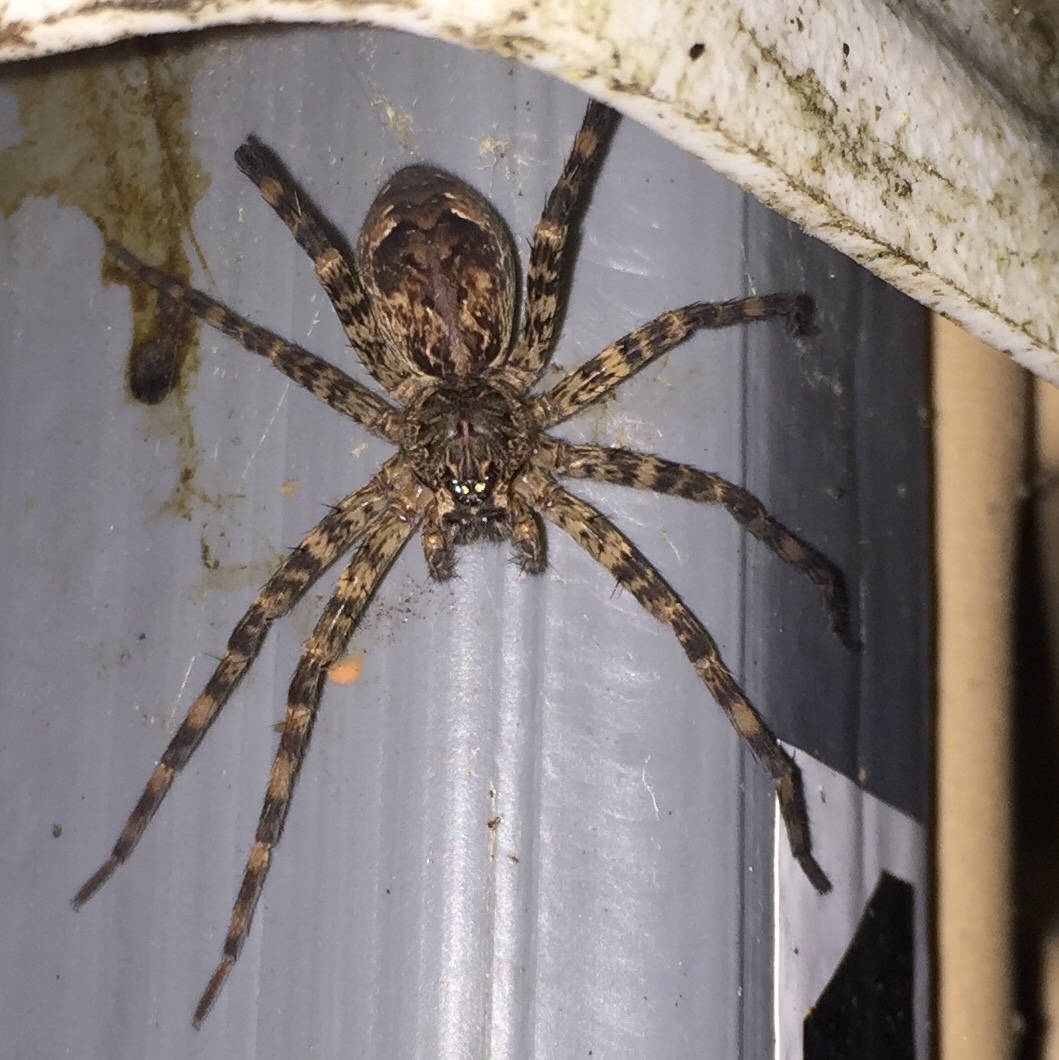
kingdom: Animalia
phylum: Arthropoda
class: Arachnida
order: Araneae
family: Pisauridae
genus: Dolomedes
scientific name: Dolomedes tenebrosus
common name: Dark fishing spider
